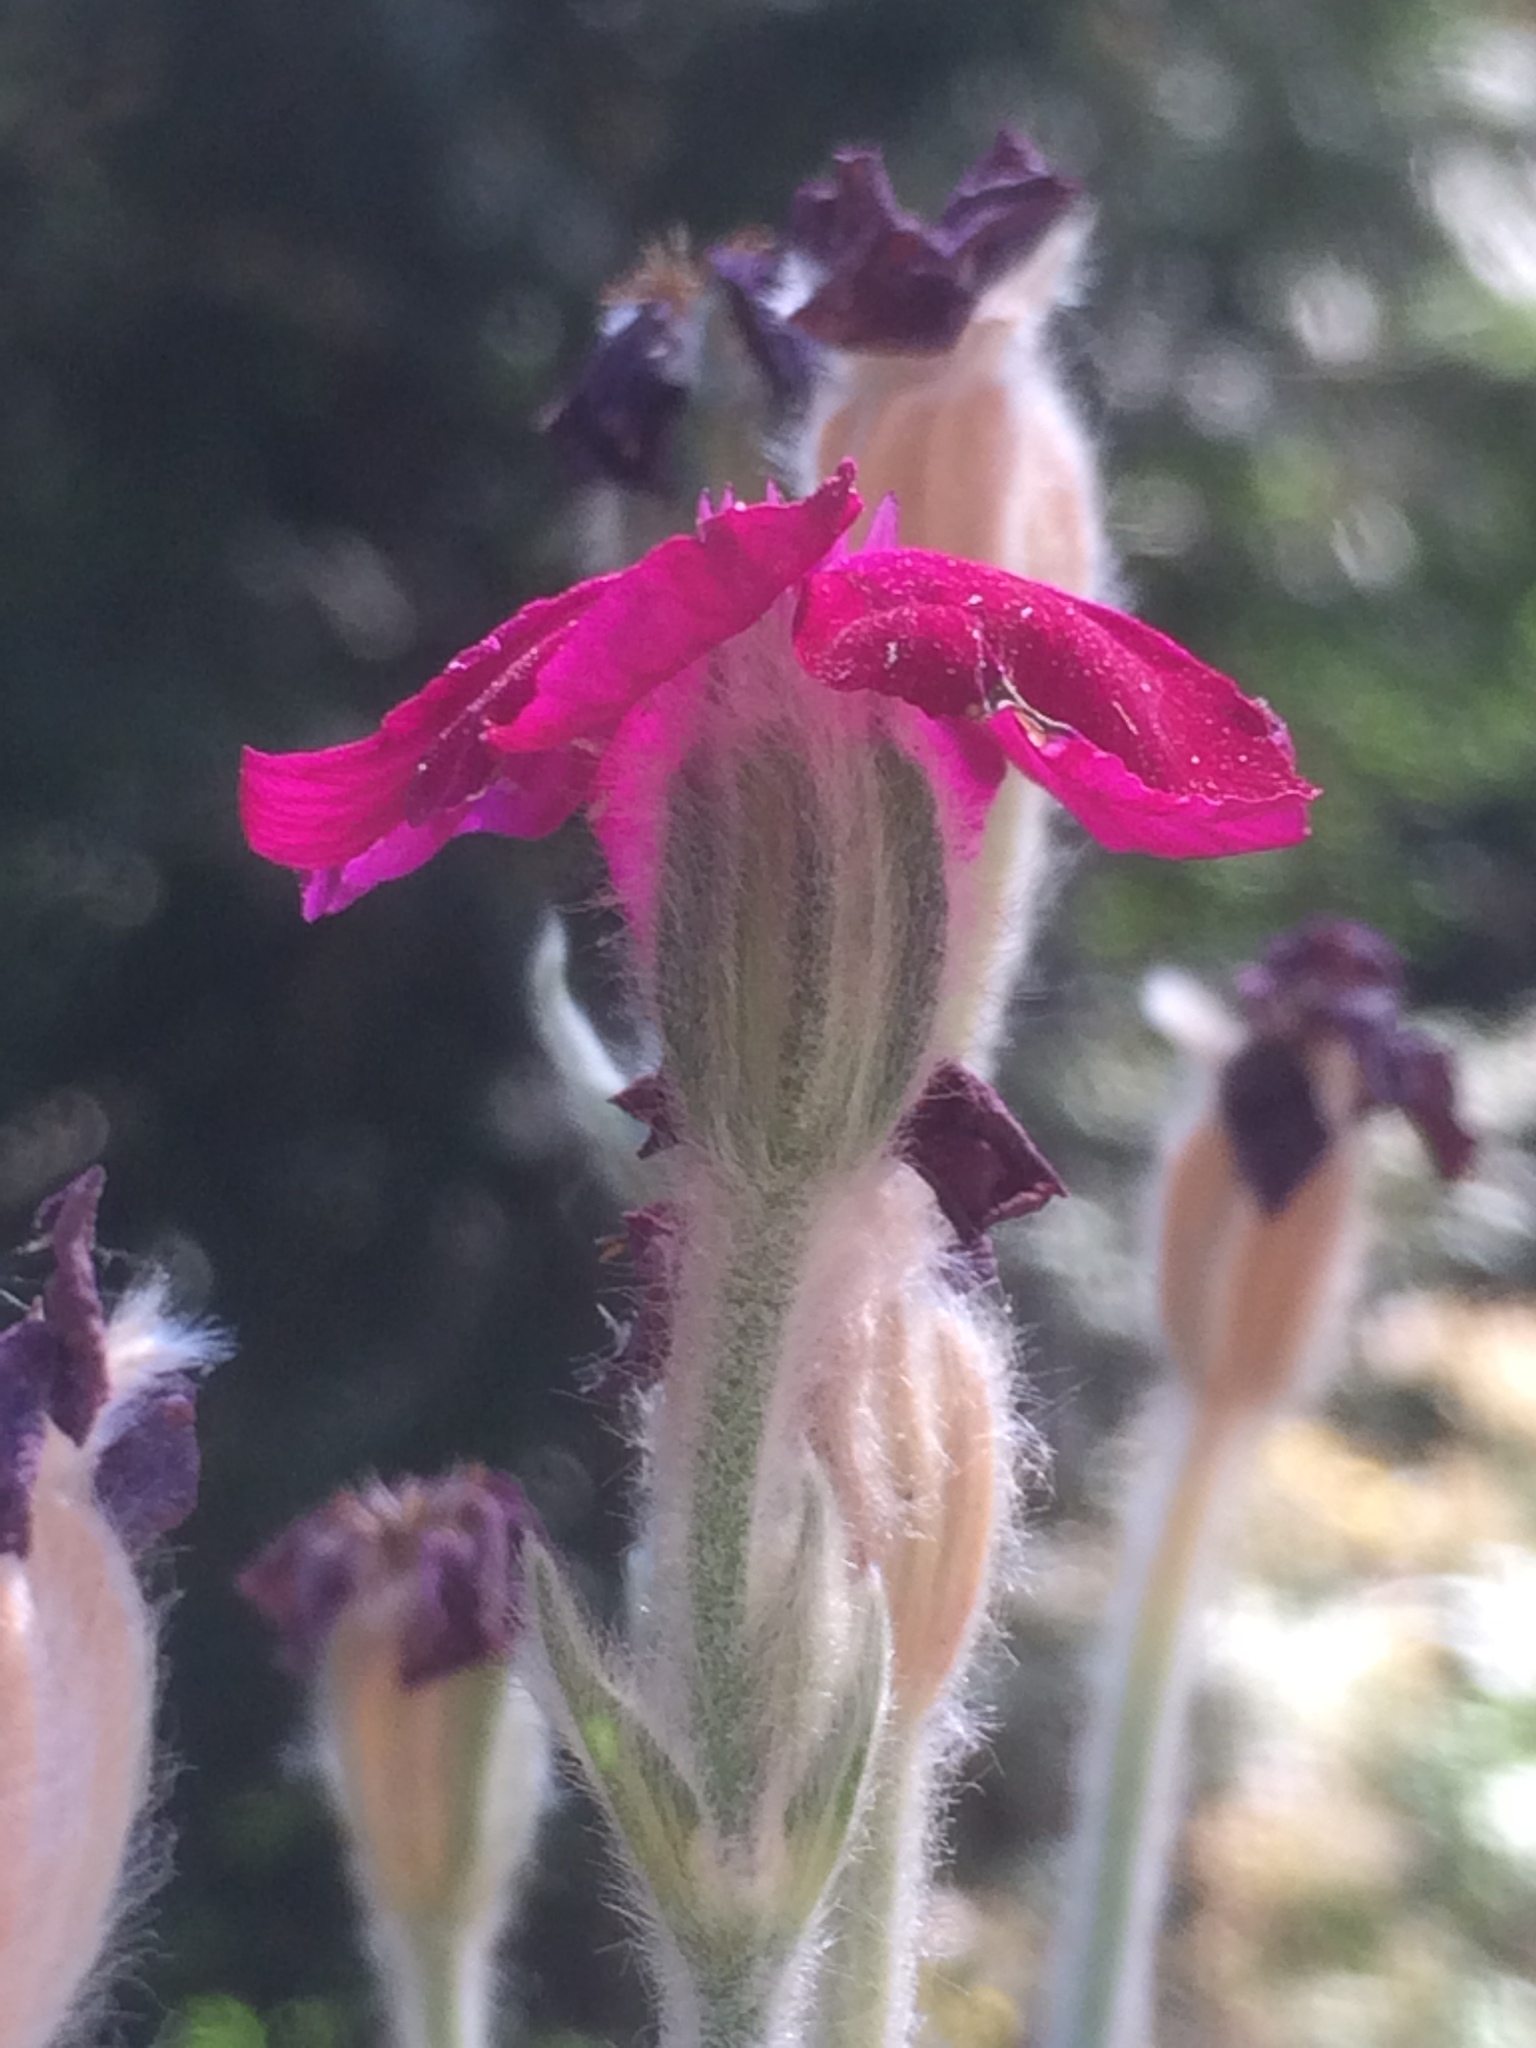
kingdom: Plantae
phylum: Tracheophyta
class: Magnoliopsida
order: Caryophyllales
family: Caryophyllaceae
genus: Silene
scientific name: Silene coronaria
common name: Rose campion
